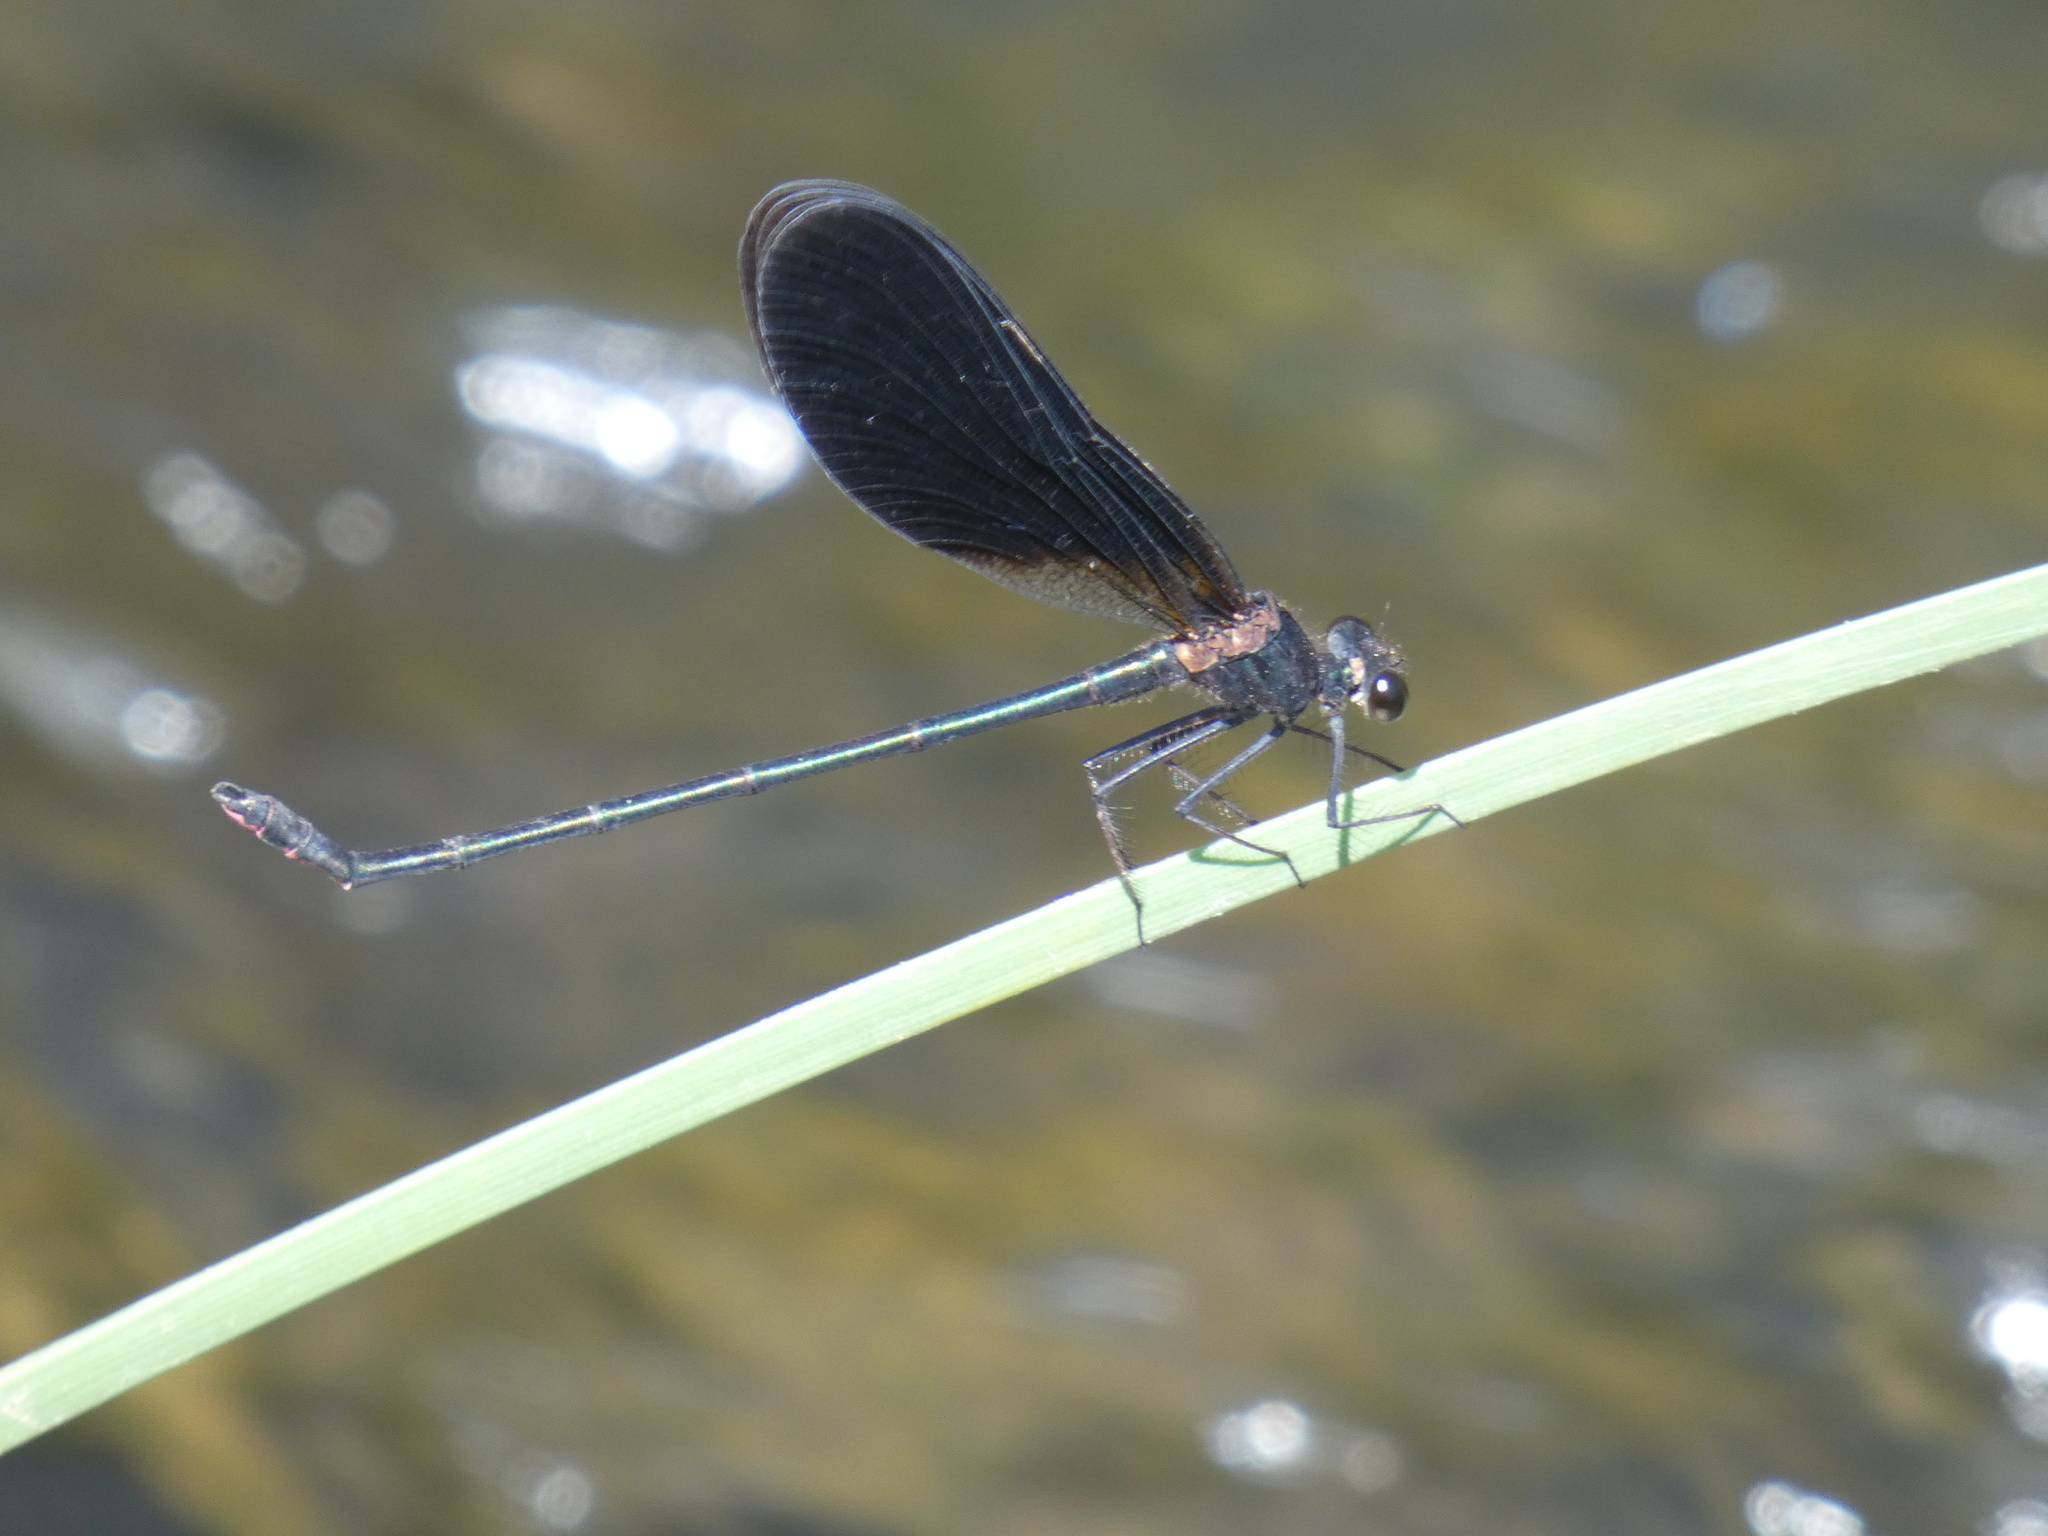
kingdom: Animalia
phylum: Arthropoda
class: Insecta
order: Odonata
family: Calopterygidae
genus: Calopteryx
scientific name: Calopteryx haemorrhoidalis
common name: Copper demoiselle
